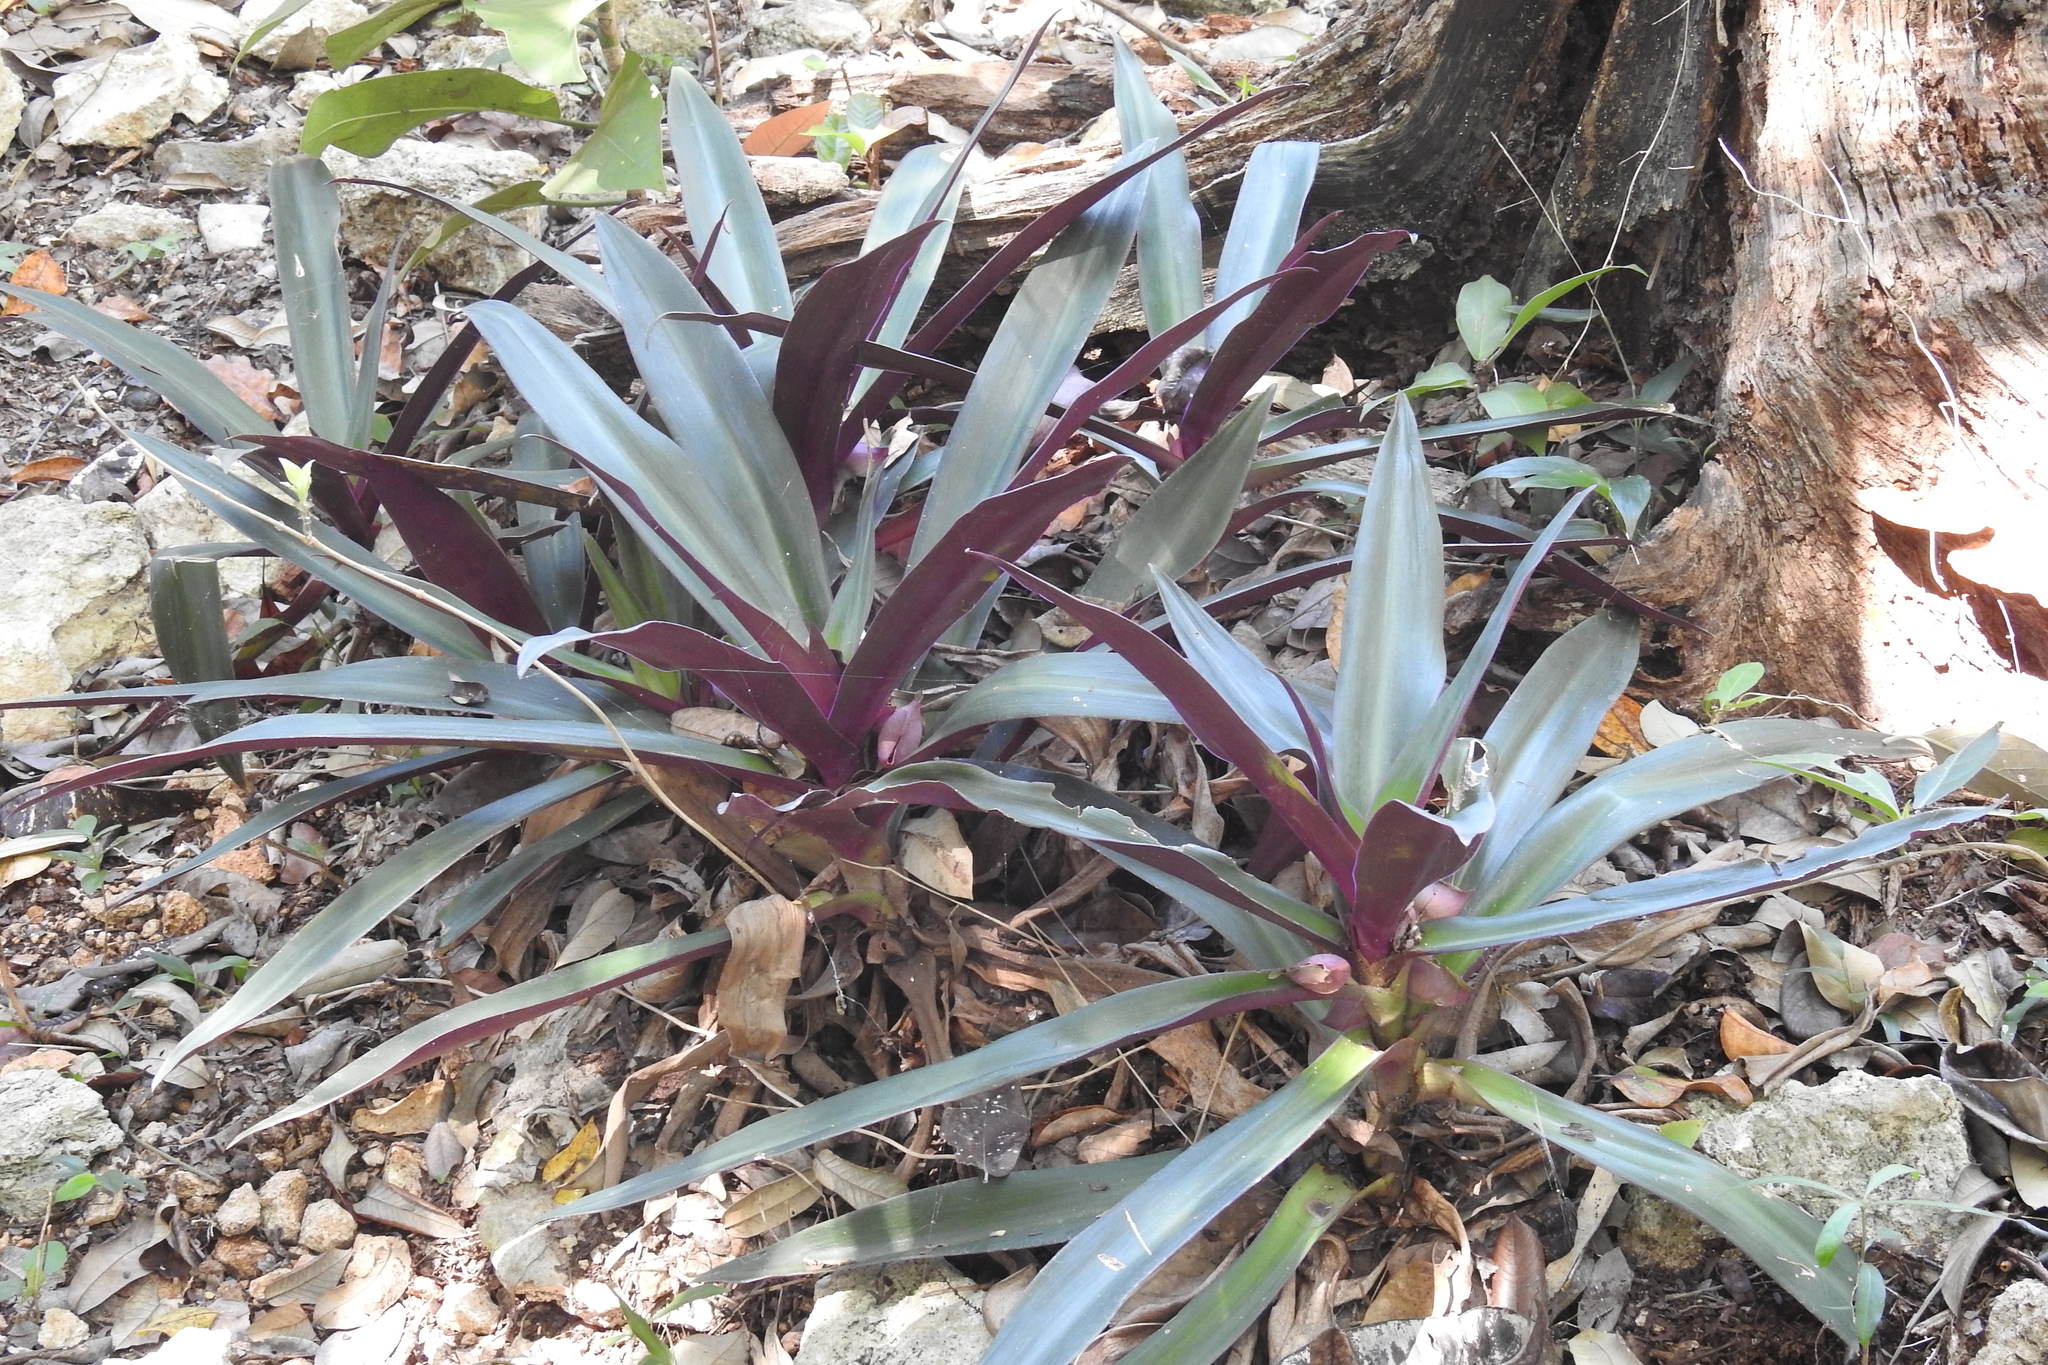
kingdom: Plantae
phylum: Tracheophyta
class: Liliopsida
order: Commelinales
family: Commelinaceae
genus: Tradescantia
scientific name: Tradescantia spathacea
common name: Boatlily
